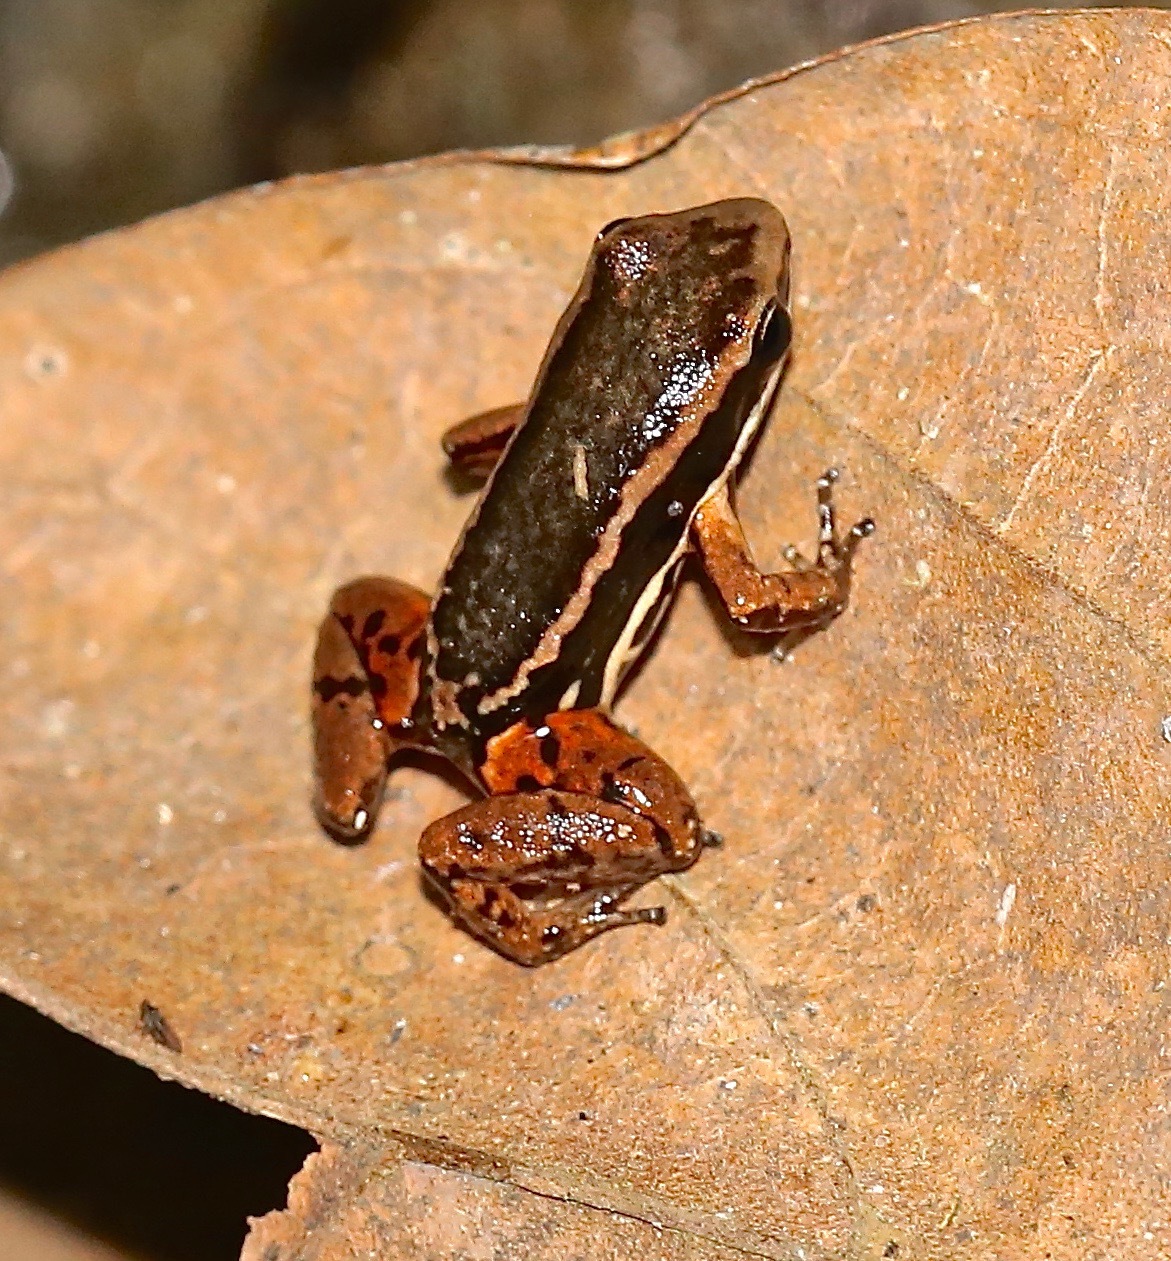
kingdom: Animalia
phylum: Chordata
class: Amphibia
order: Anura
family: Aromobatidae
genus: Allobates
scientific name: Allobates talamancae
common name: Talamanca rocket frog
